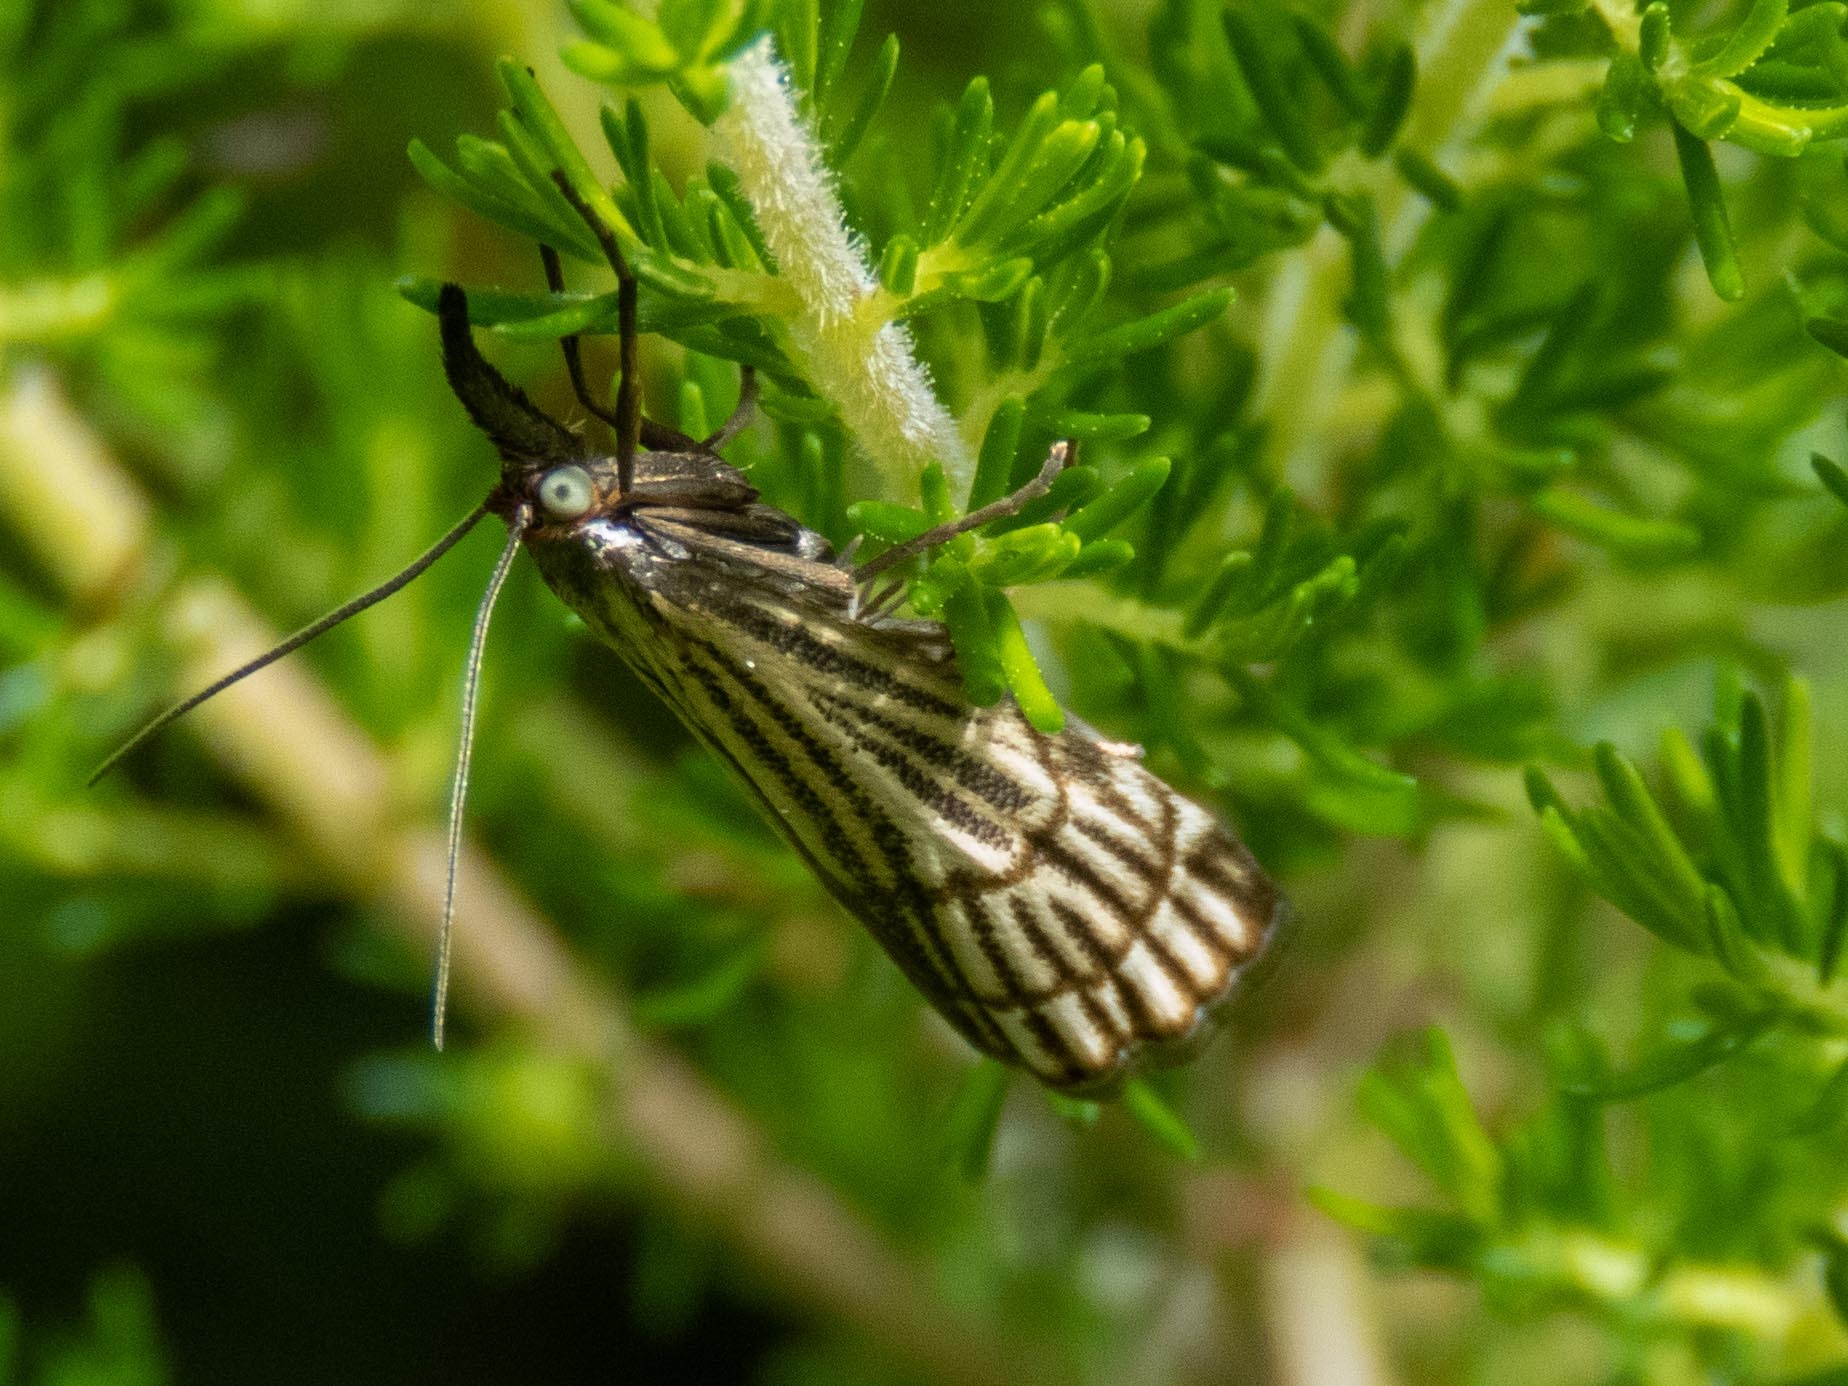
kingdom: Animalia
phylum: Arthropoda
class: Insecta
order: Lepidoptera
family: Crambidae
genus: Chrysocrambus
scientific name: Chrysocrambus Chrysocramboides craterellus
